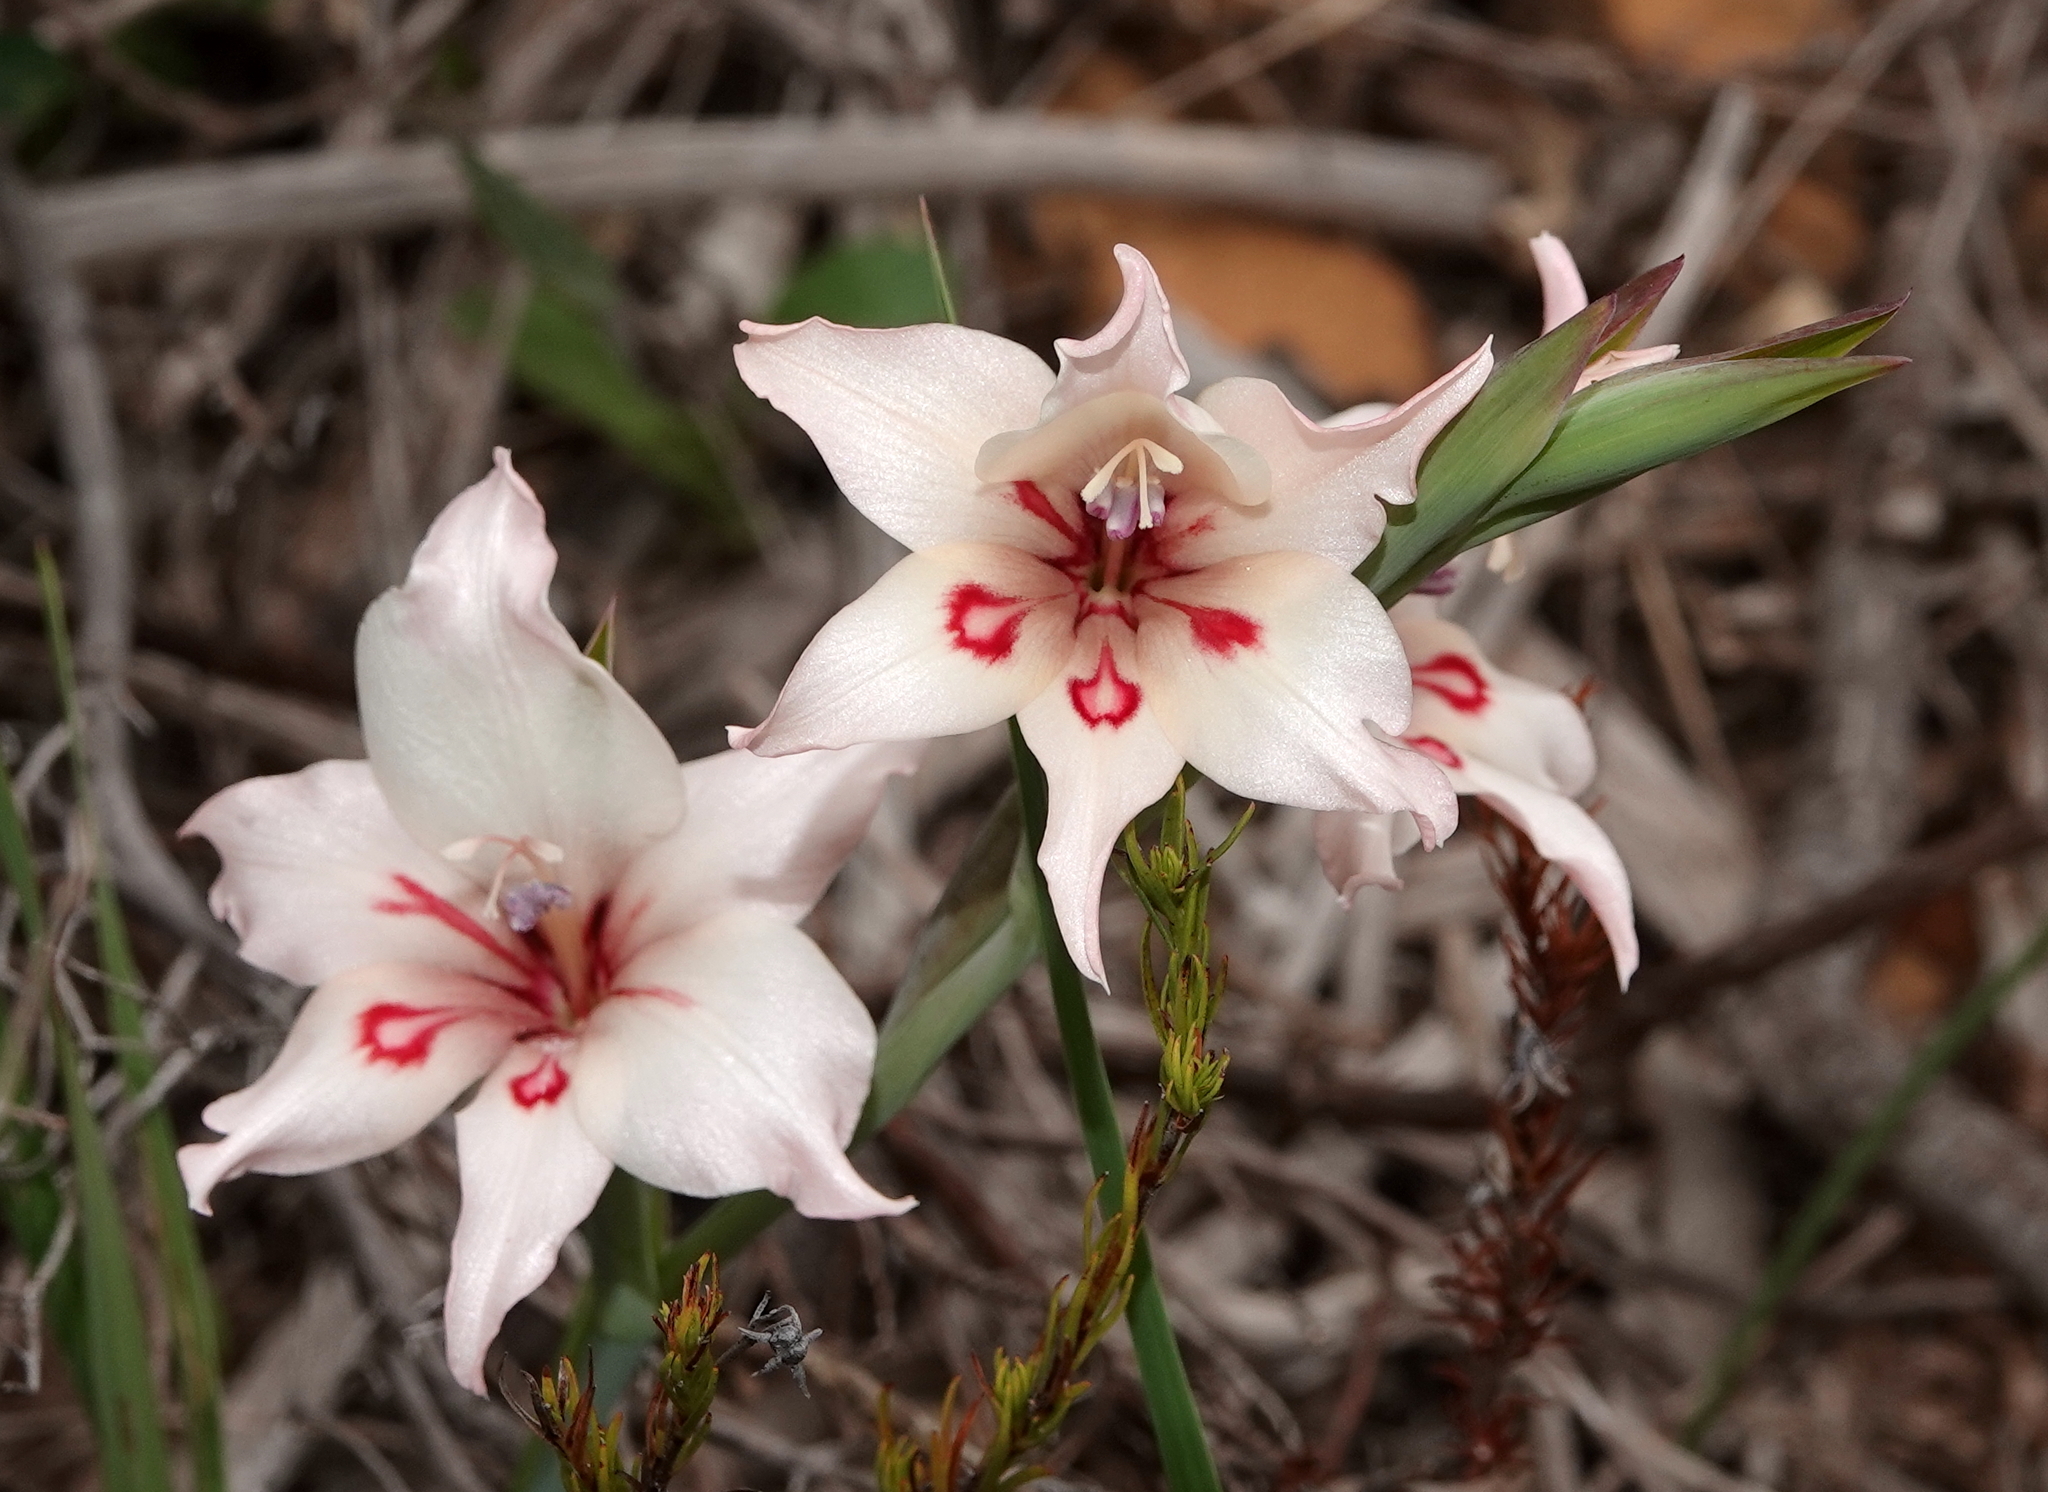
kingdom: Plantae
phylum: Tracheophyta
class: Liliopsida
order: Asparagales
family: Iridaceae
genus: Gladiolus
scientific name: Gladiolus carneus
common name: Painted-lady
